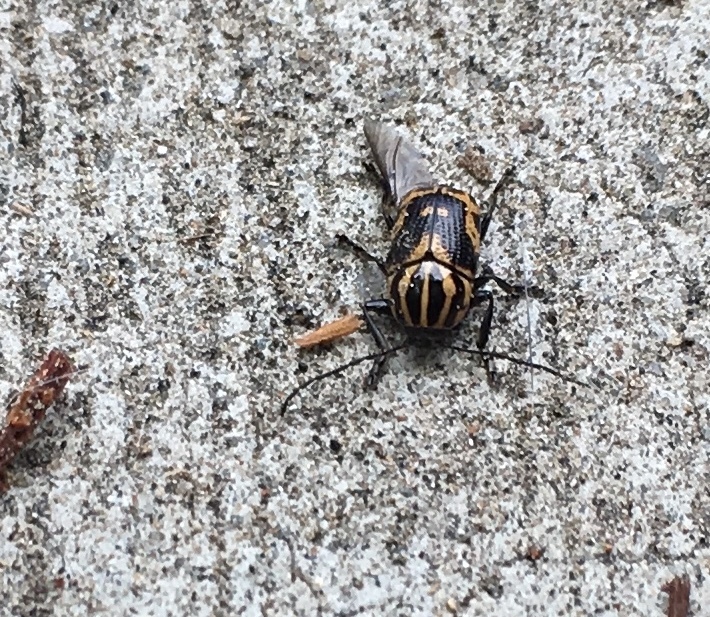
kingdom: Animalia
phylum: Arthropoda
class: Insecta
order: Coleoptera
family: Chrysomelidae
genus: Cryptocephalus
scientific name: Cryptocephalus castaneus
